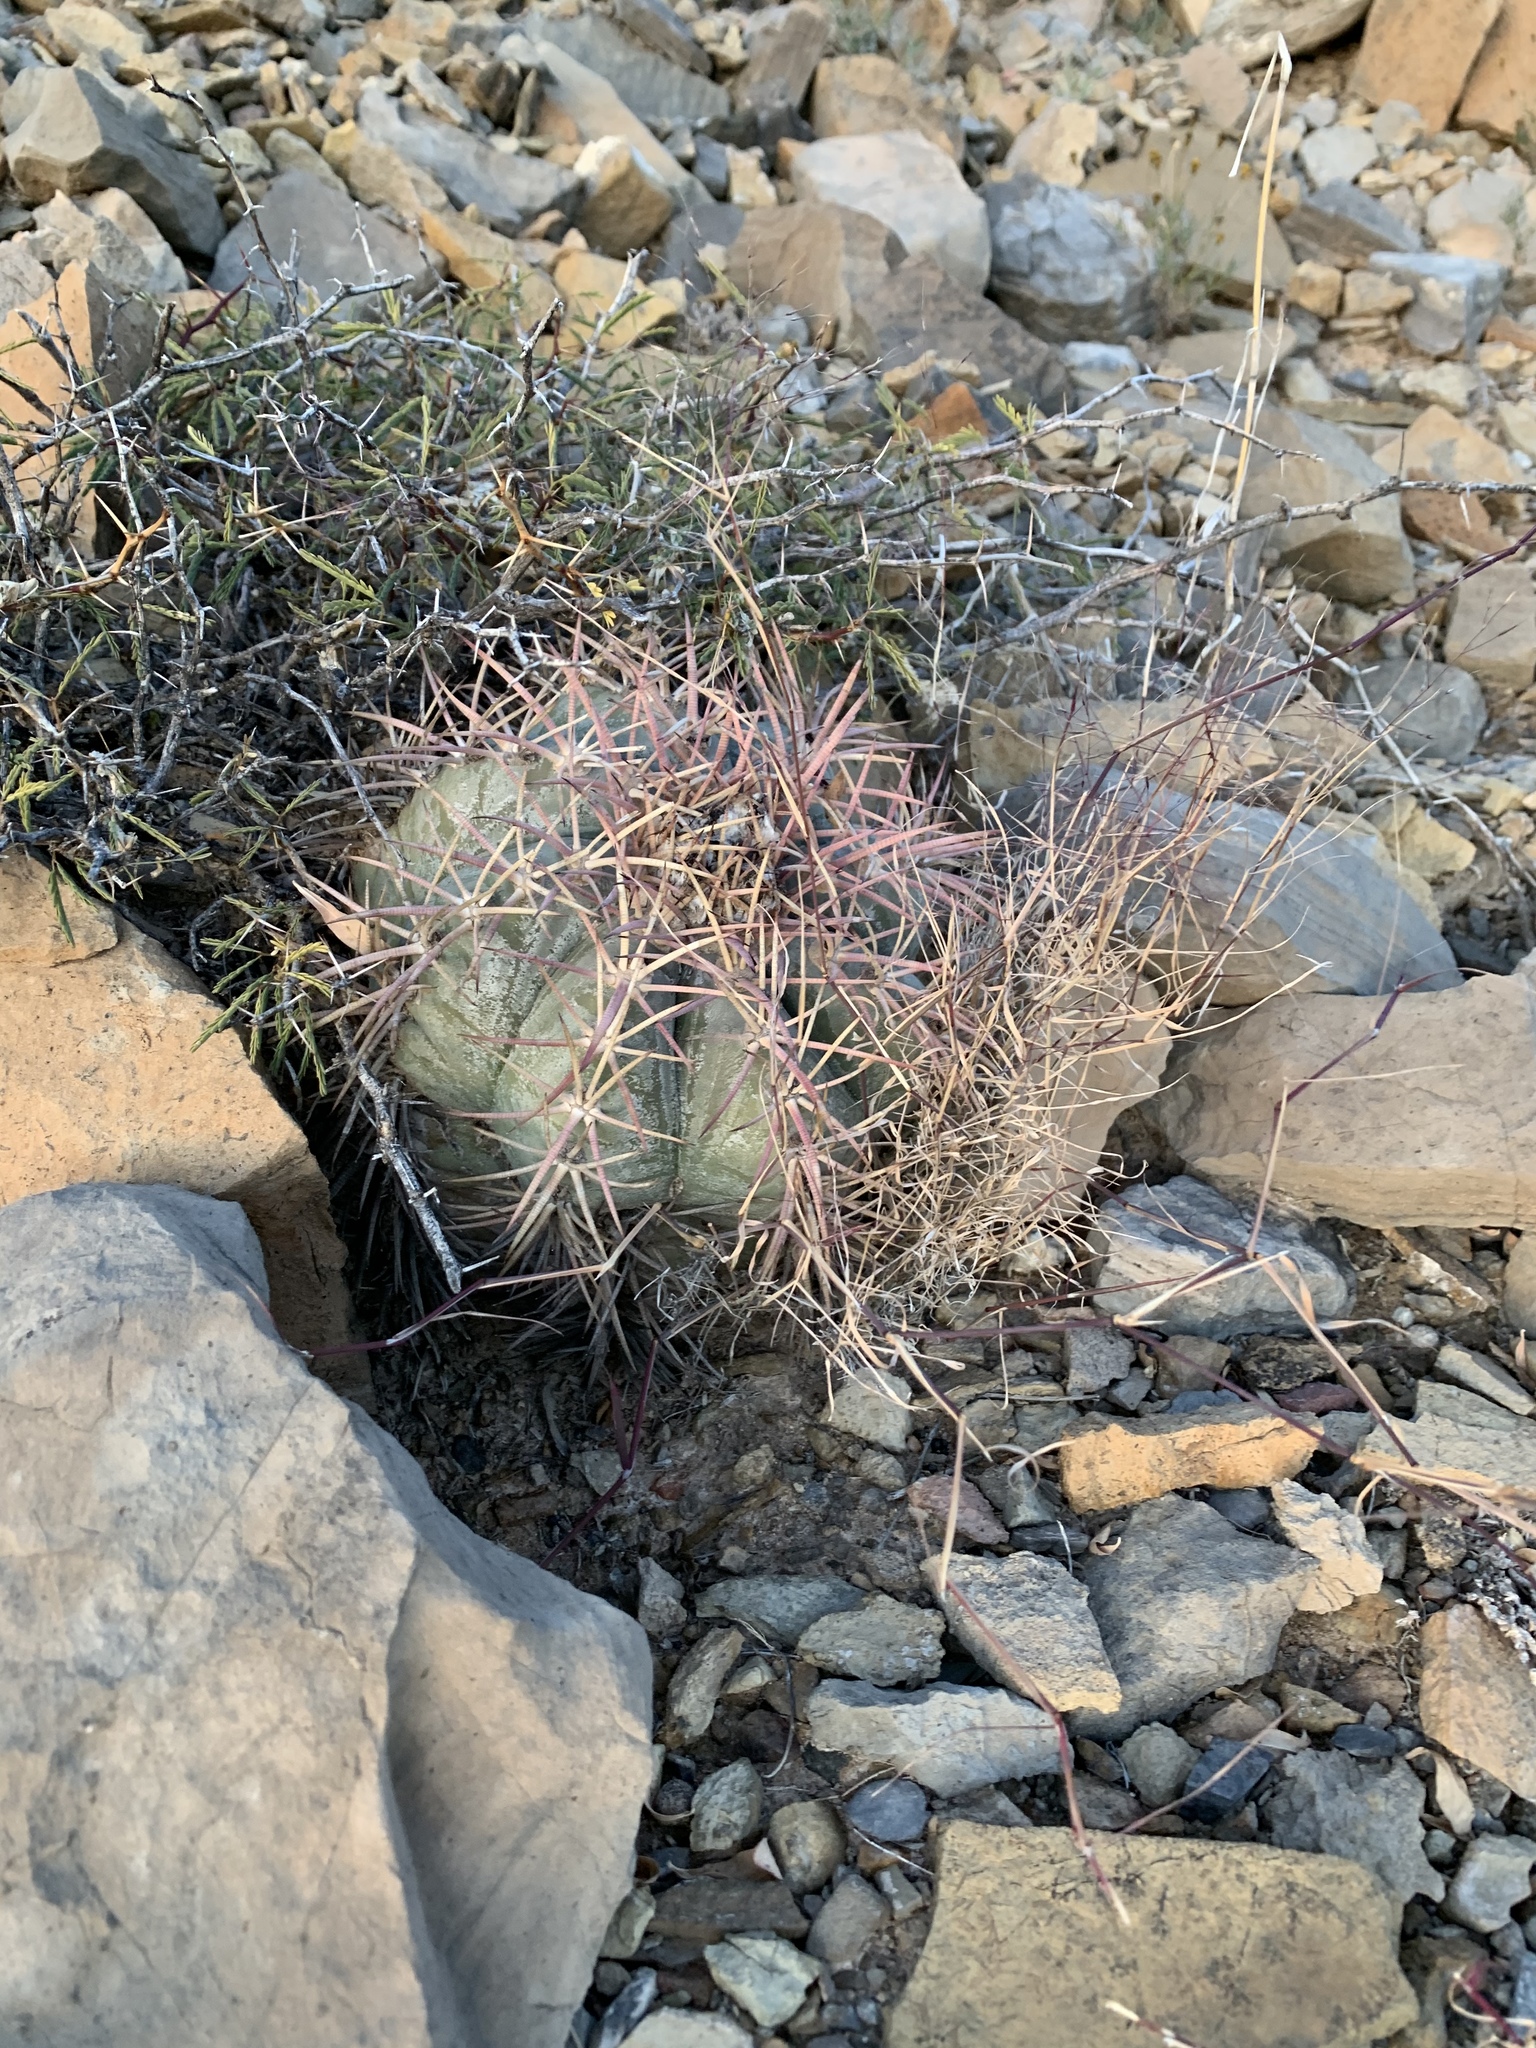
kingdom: Plantae
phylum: Tracheophyta
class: Magnoliopsida
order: Caryophyllales
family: Cactaceae
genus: Echinocactus
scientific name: Echinocactus horizonthalonius
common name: Devilshead
